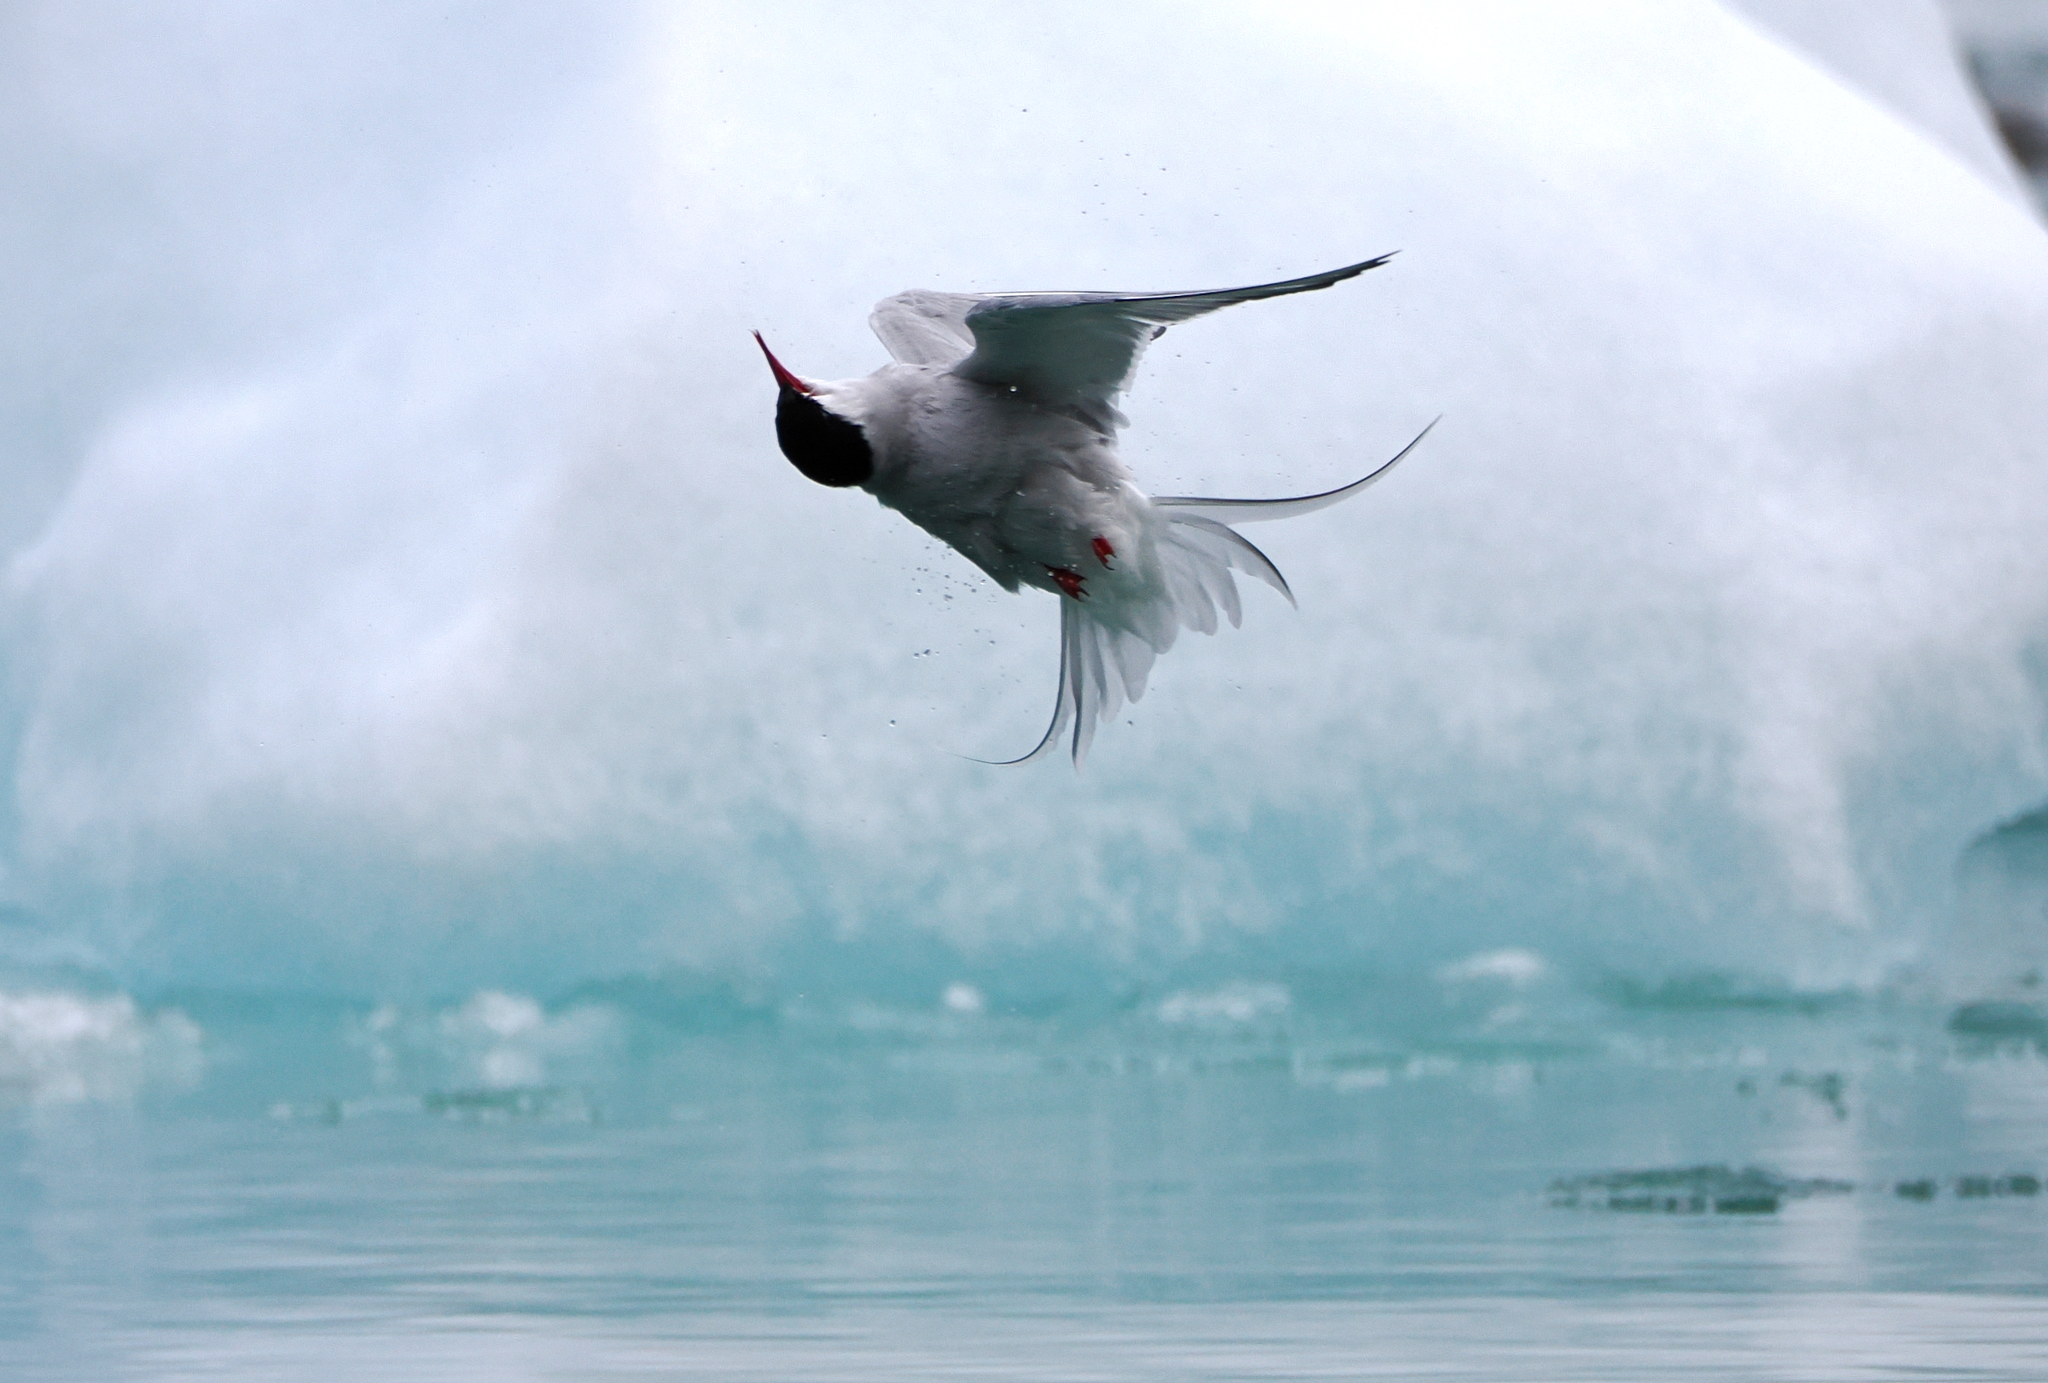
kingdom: Animalia
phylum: Chordata
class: Aves
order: Charadriiformes
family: Laridae
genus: Sterna
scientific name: Sterna paradisaea
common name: Arctic tern
